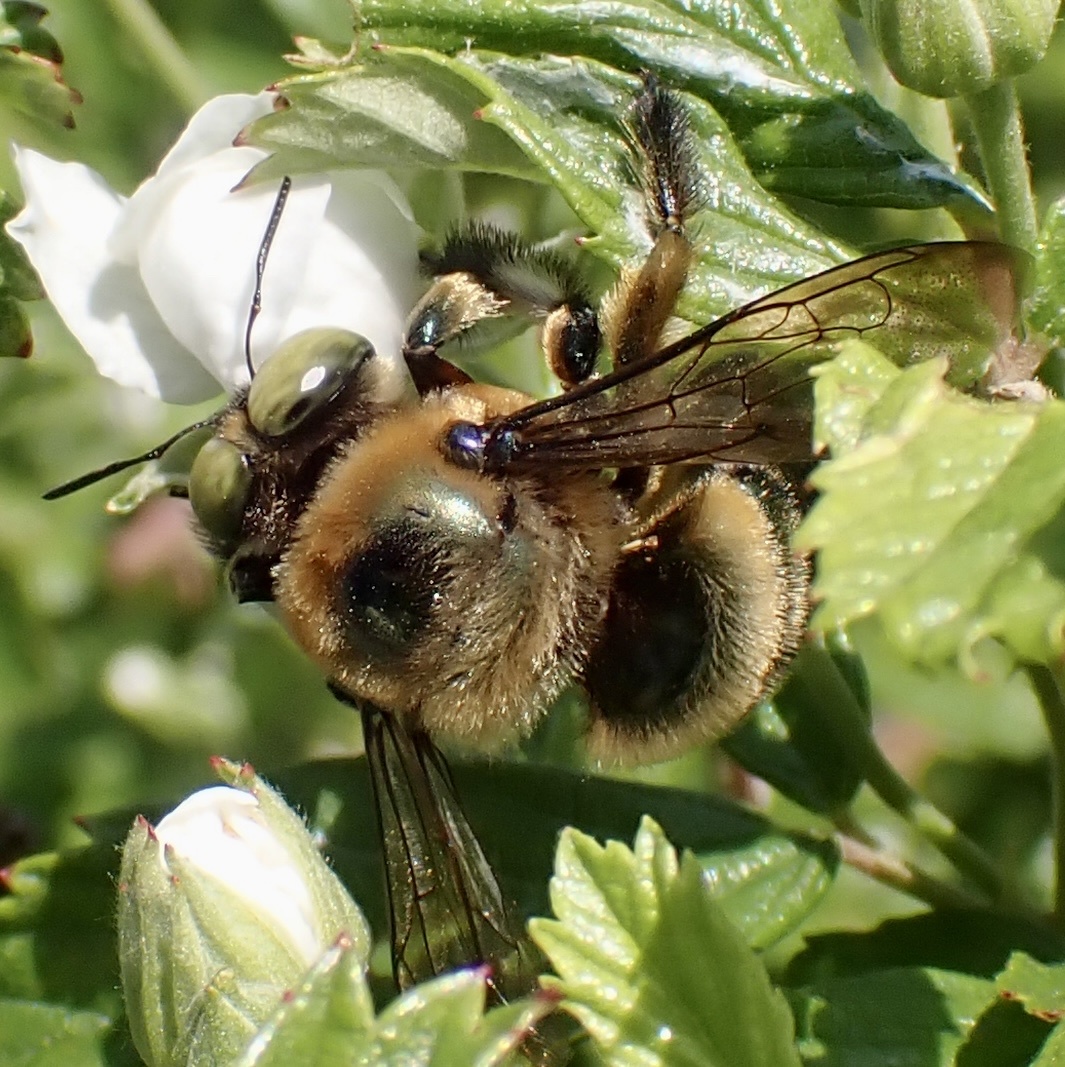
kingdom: Animalia
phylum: Arthropoda
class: Insecta
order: Hymenoptera
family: Apidae
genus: Xylocopa
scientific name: Xylocopa micans
